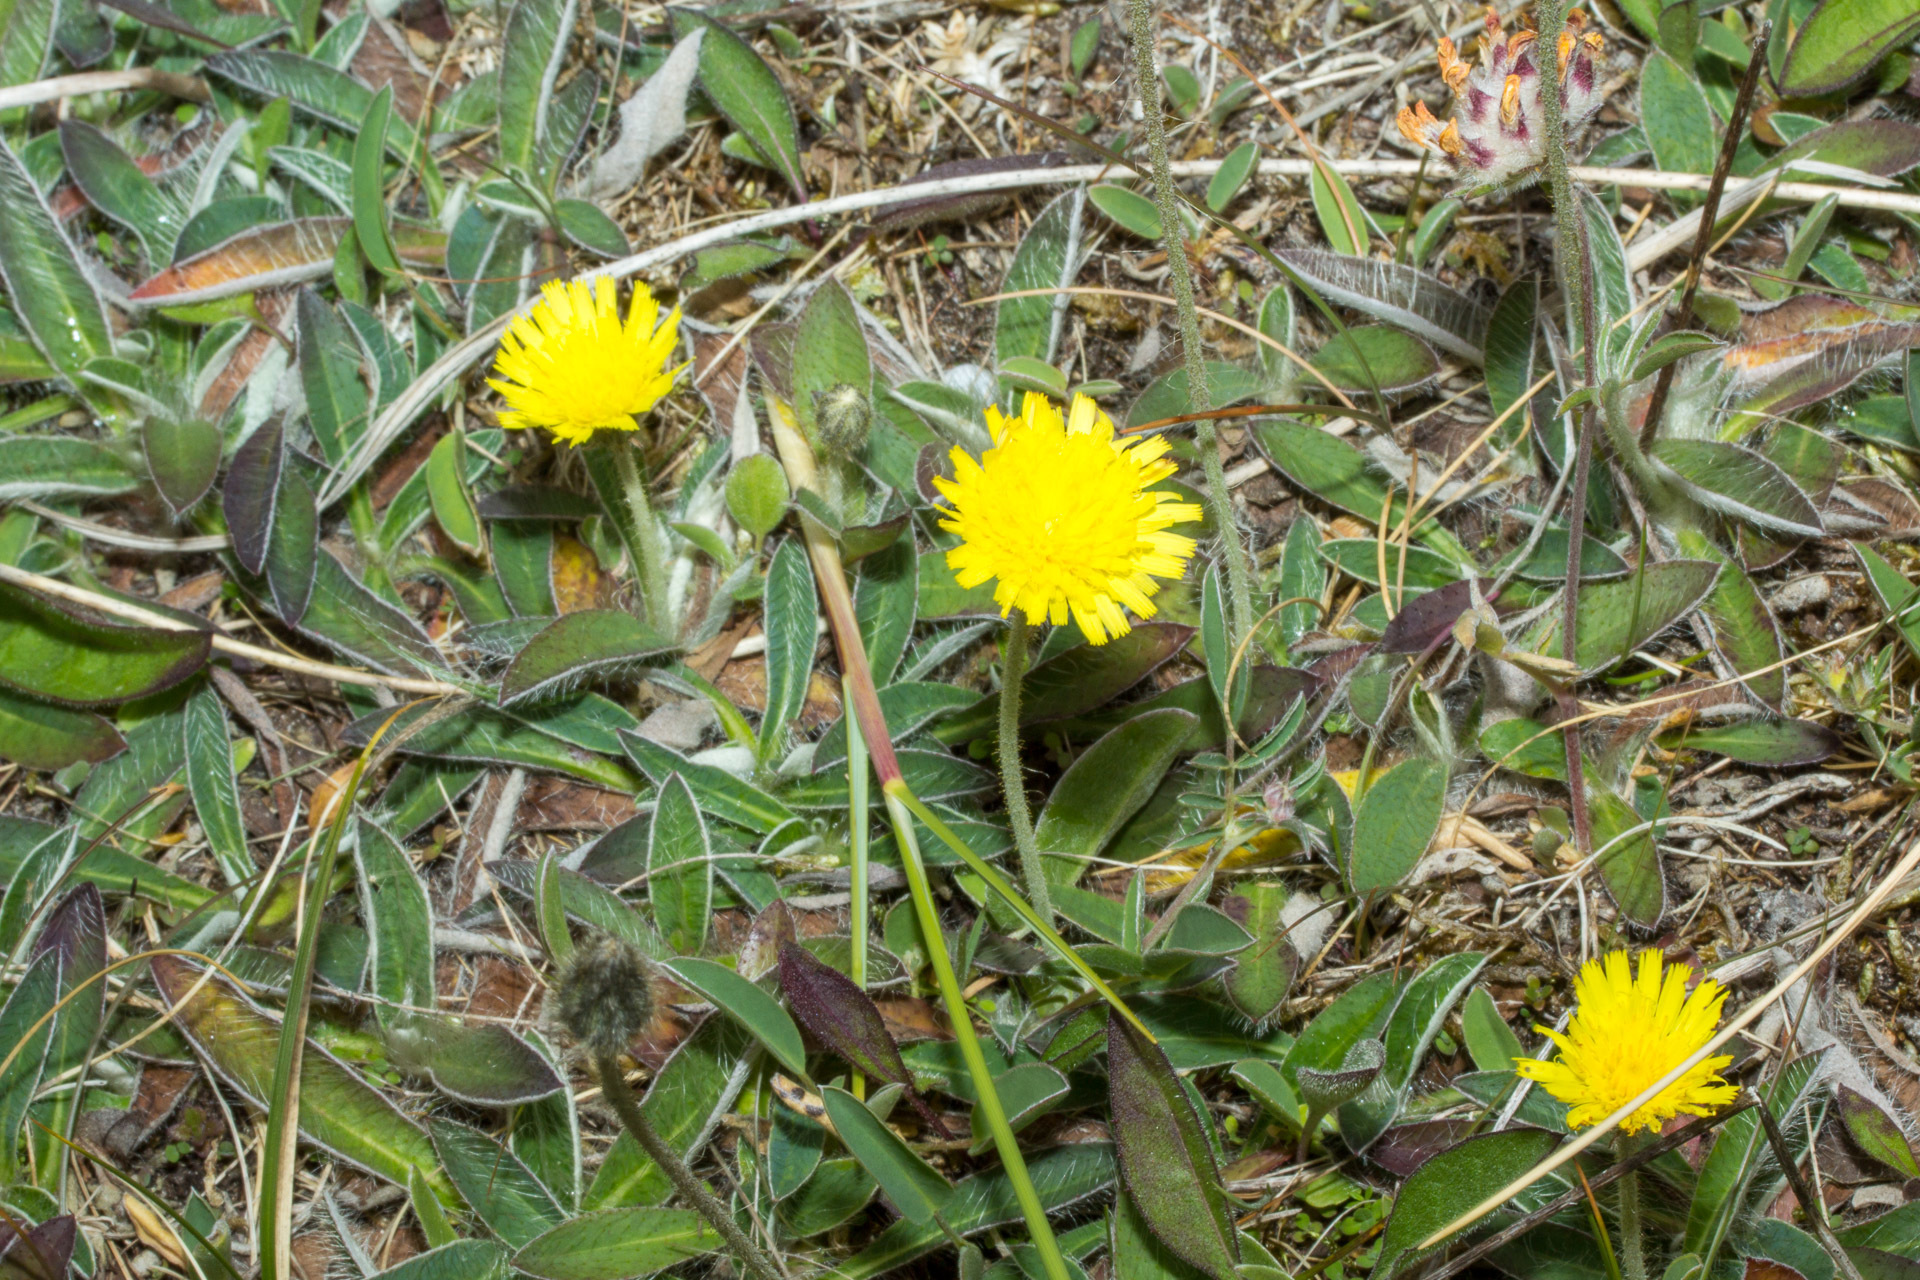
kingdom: Plantae
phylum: Tracheophyta
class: Magnoliopsida
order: Asterales
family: Asteraceae
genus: Pilosella
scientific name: Pilosella officinarum
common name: Mouse-ear hawkweed
